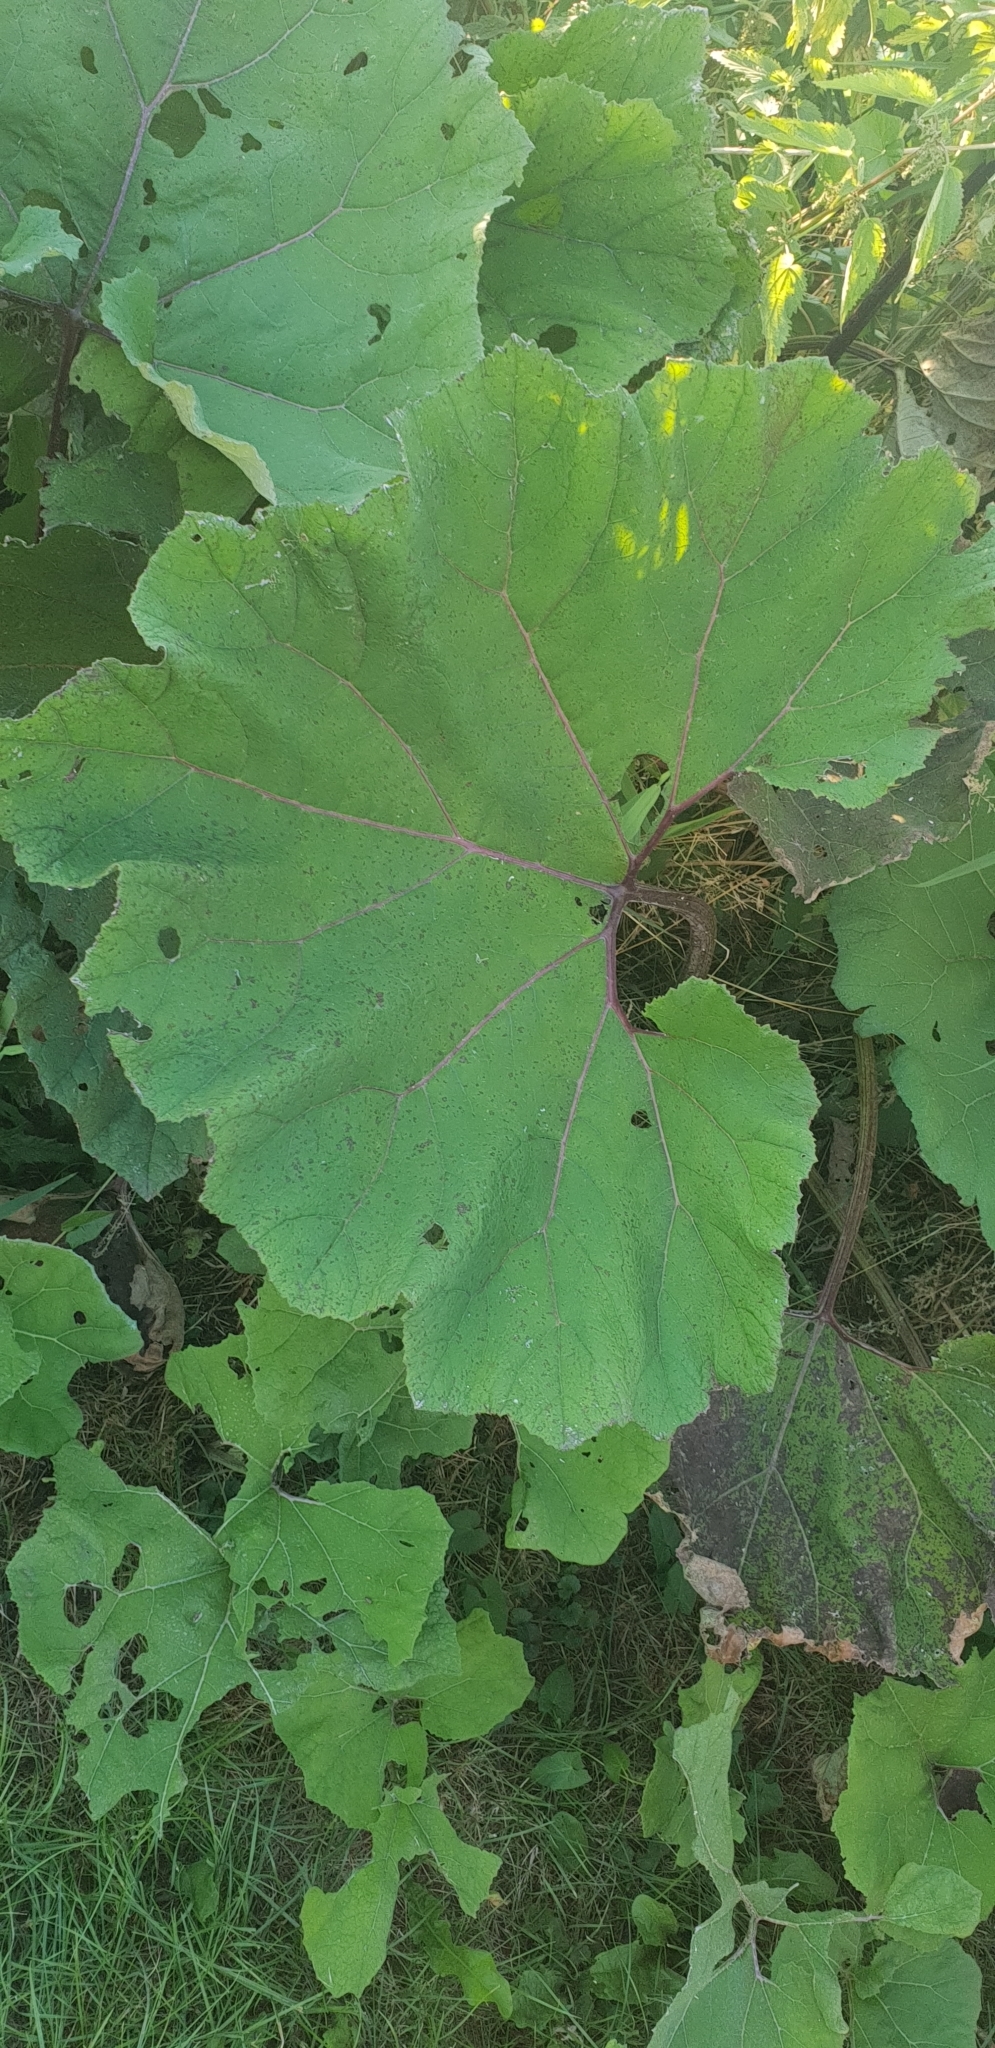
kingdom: Plantae
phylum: Tracheophyta
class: Magnoliopsida
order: Asterales
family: Asteraceae
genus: Petasites
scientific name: Petasites japonicus
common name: Giant butterbur
